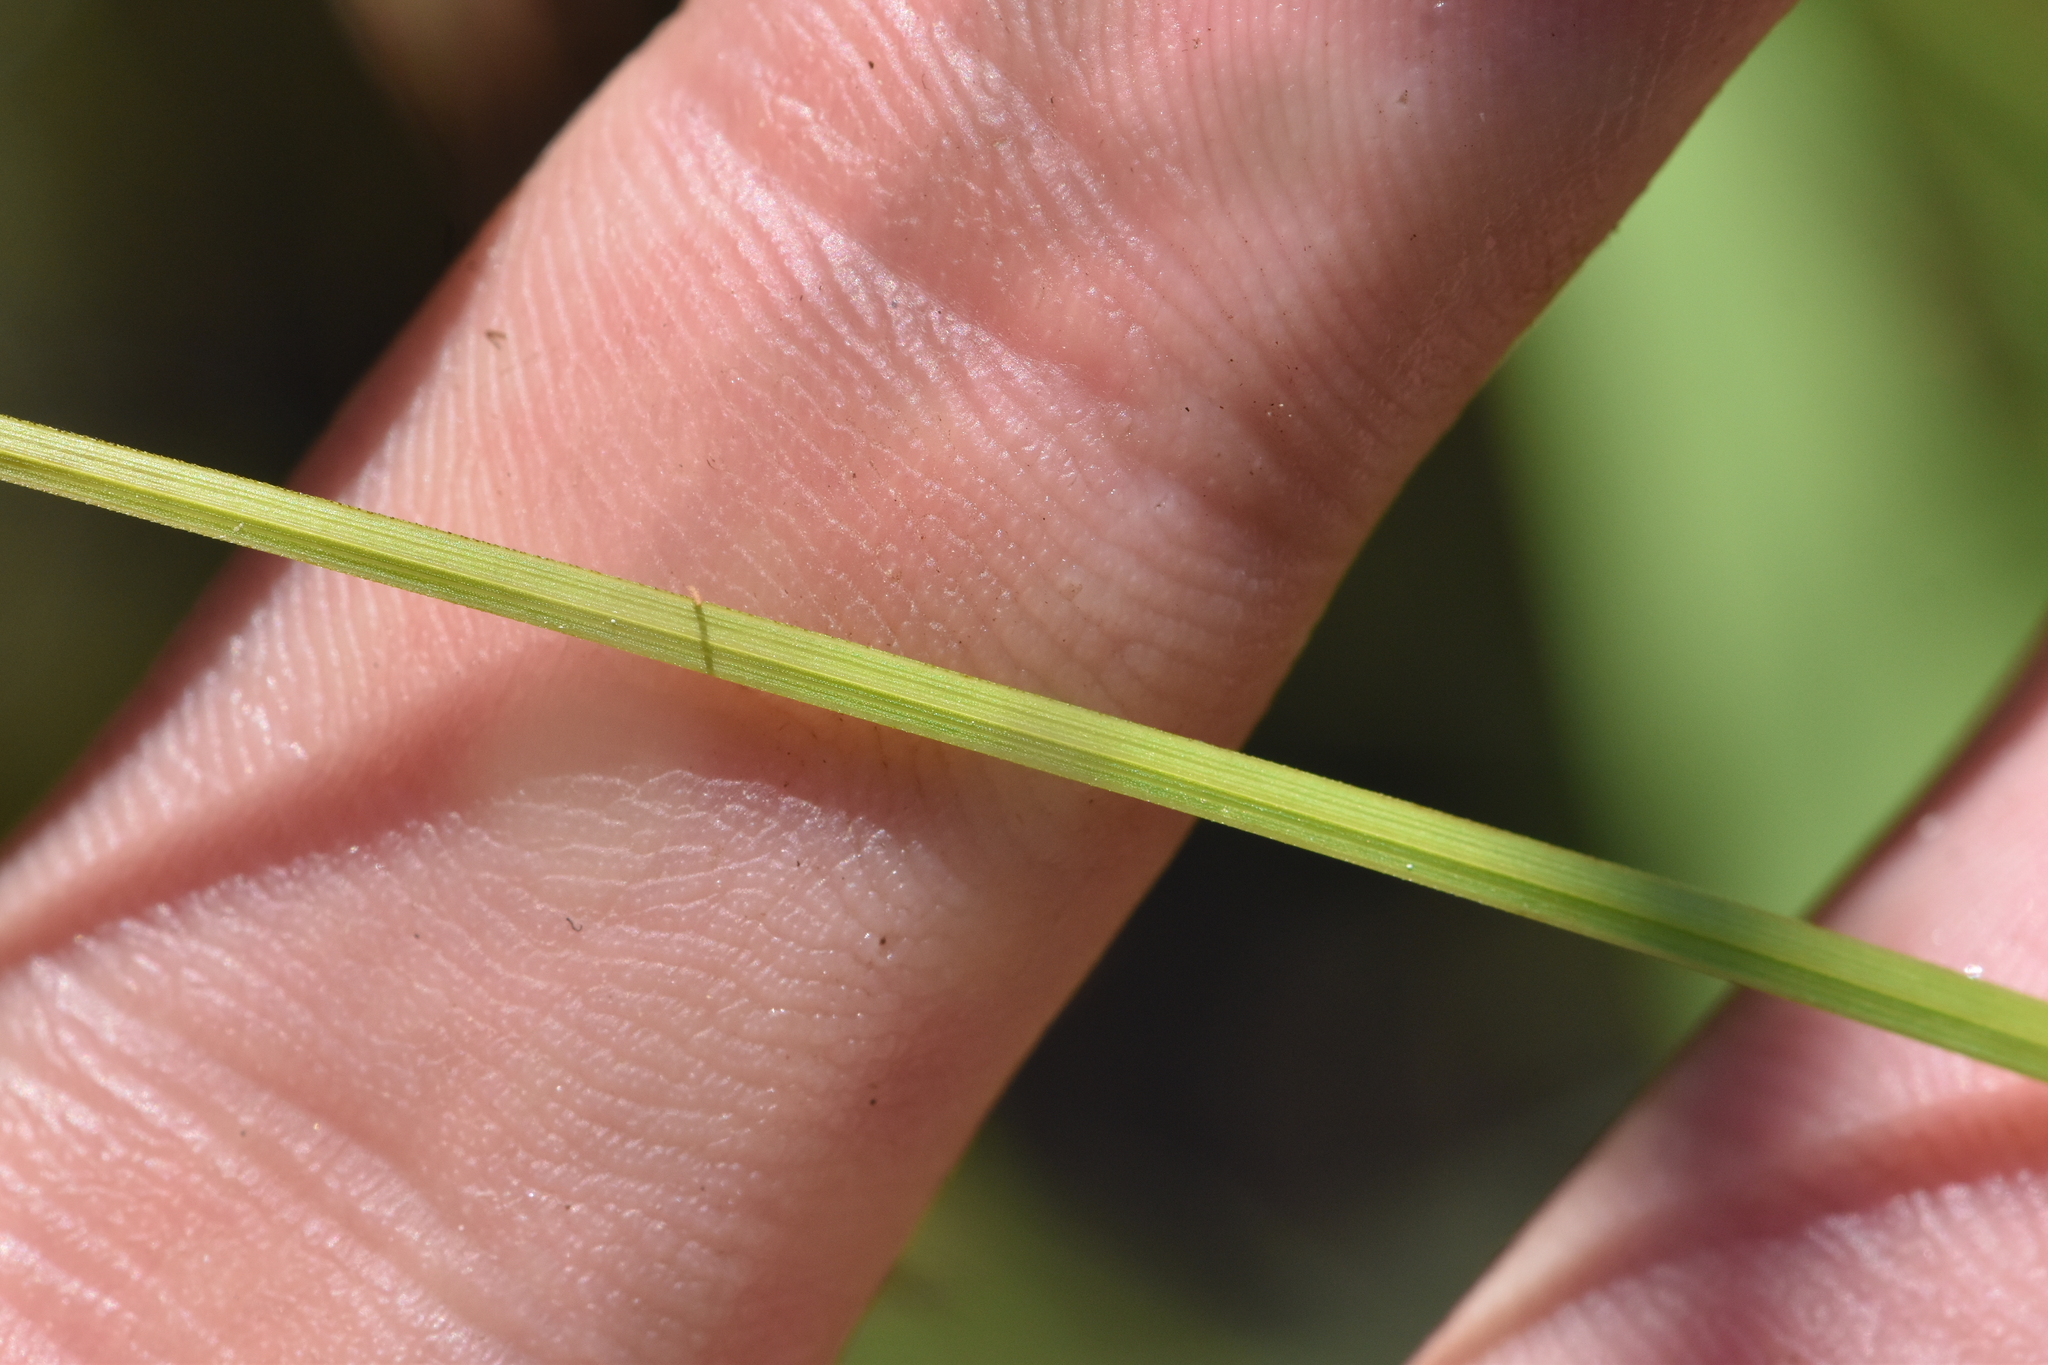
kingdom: Plantae
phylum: Tracheophyta
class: Liliopsida
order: Poales
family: Cyperaceae
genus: Carex
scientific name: Carex bebbii
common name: Bebb's sedge
